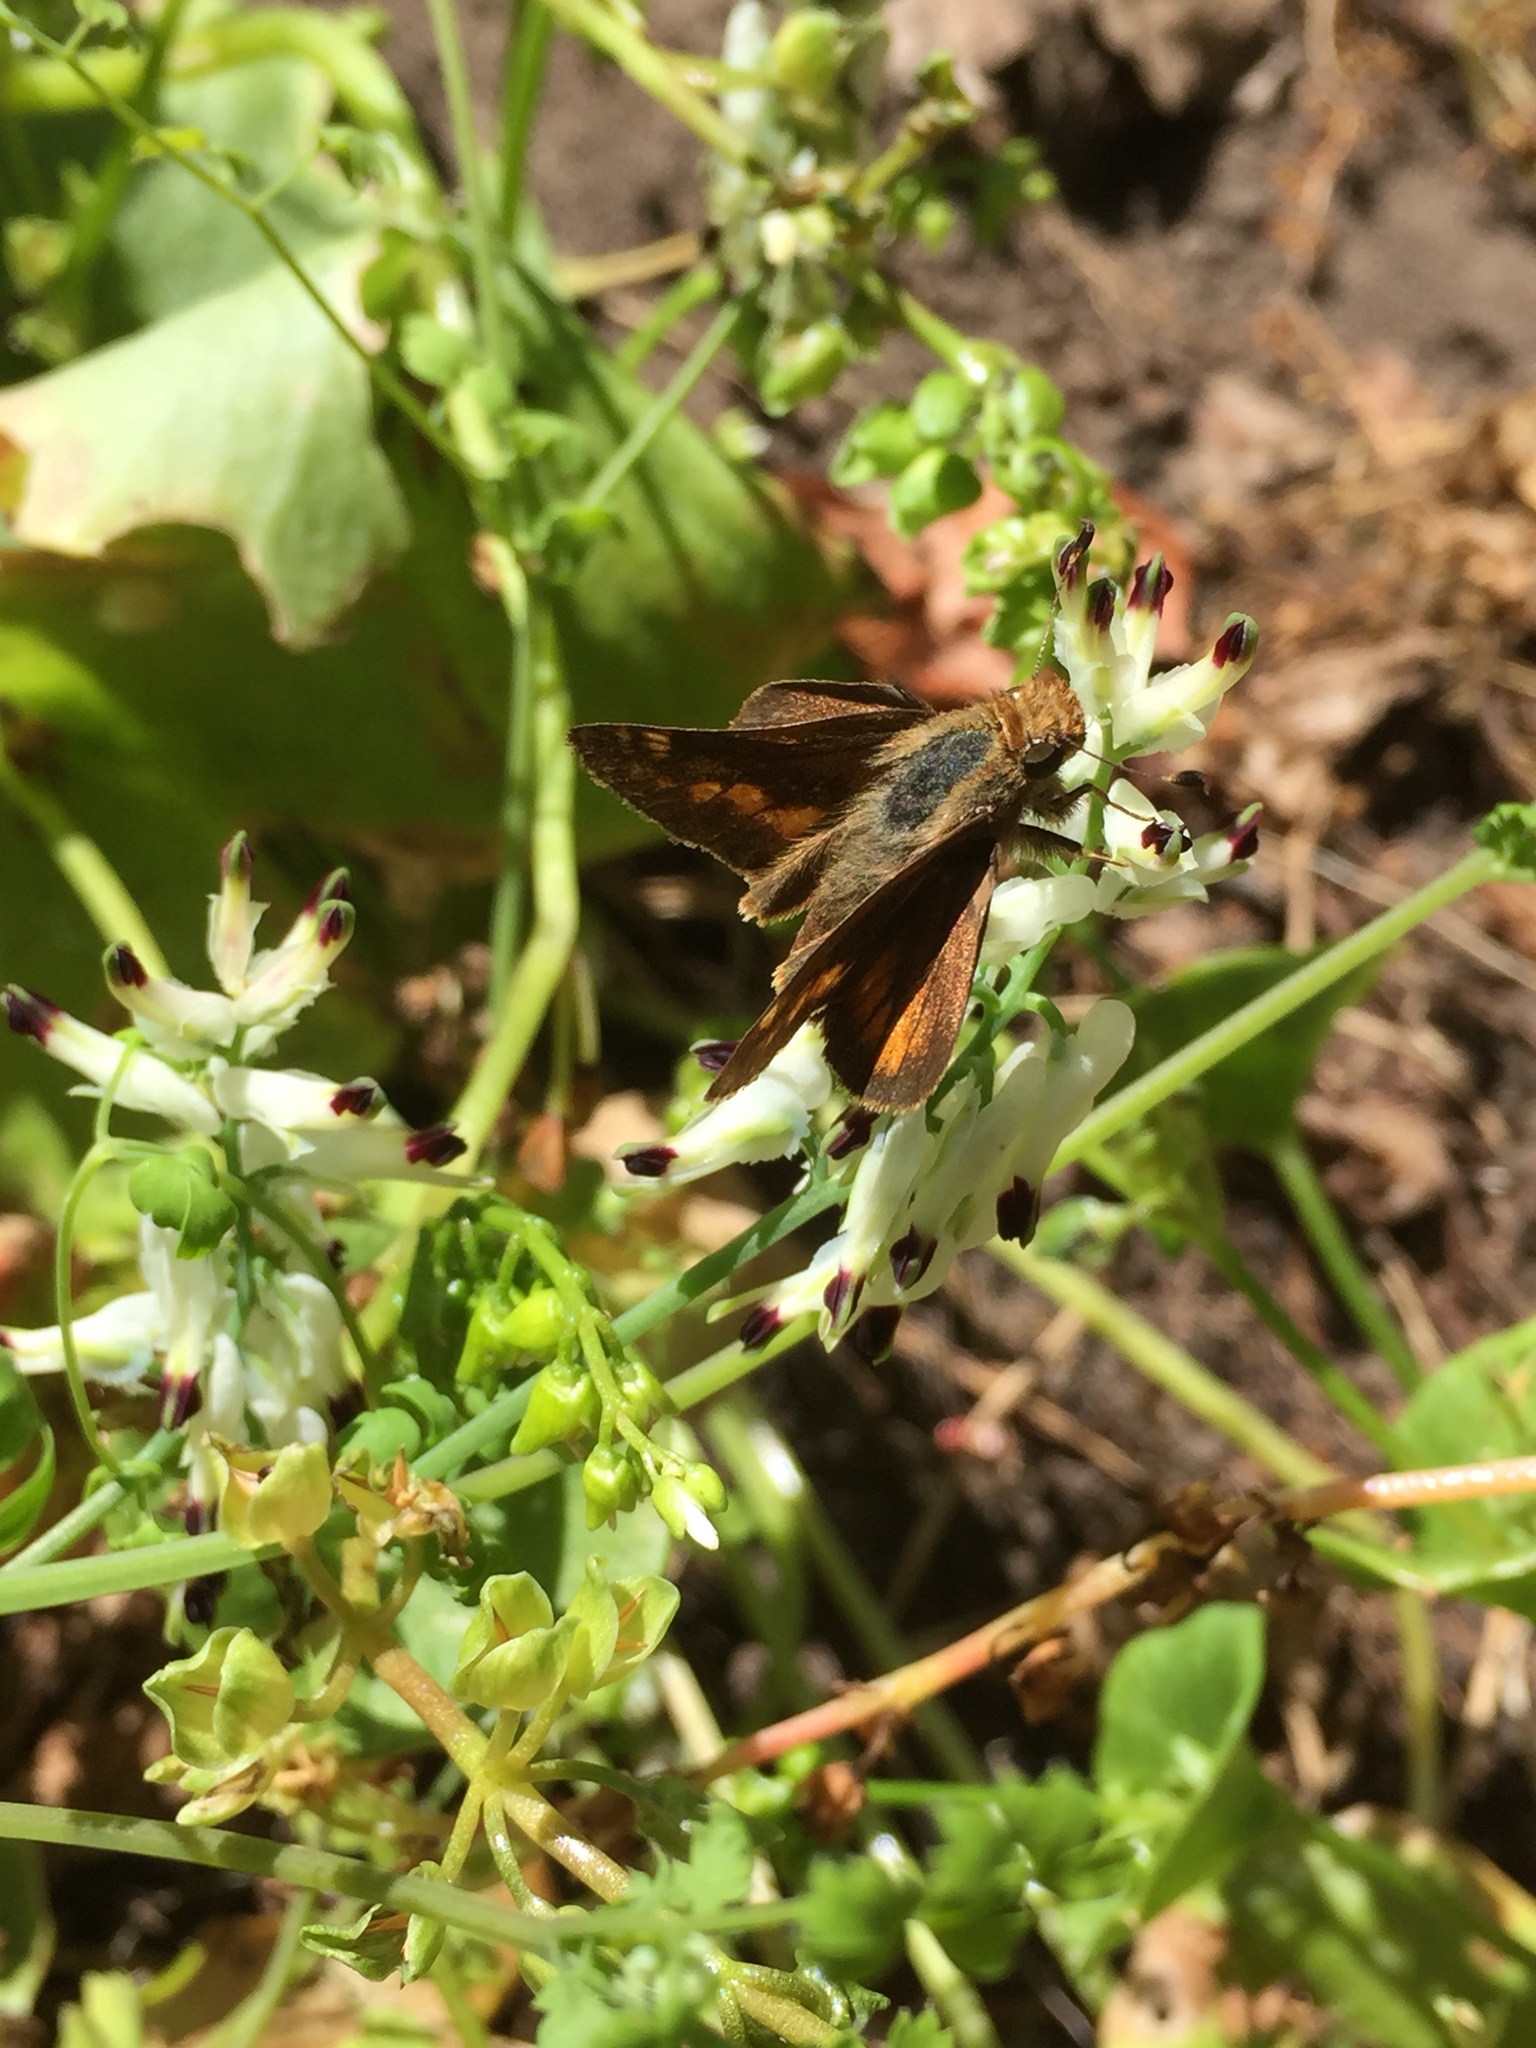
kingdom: Animalia
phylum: Arthropoda
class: Insecta
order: Lepidoptera
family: Hesperiidae
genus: Lon
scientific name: Lon melane
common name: Umber skipper
